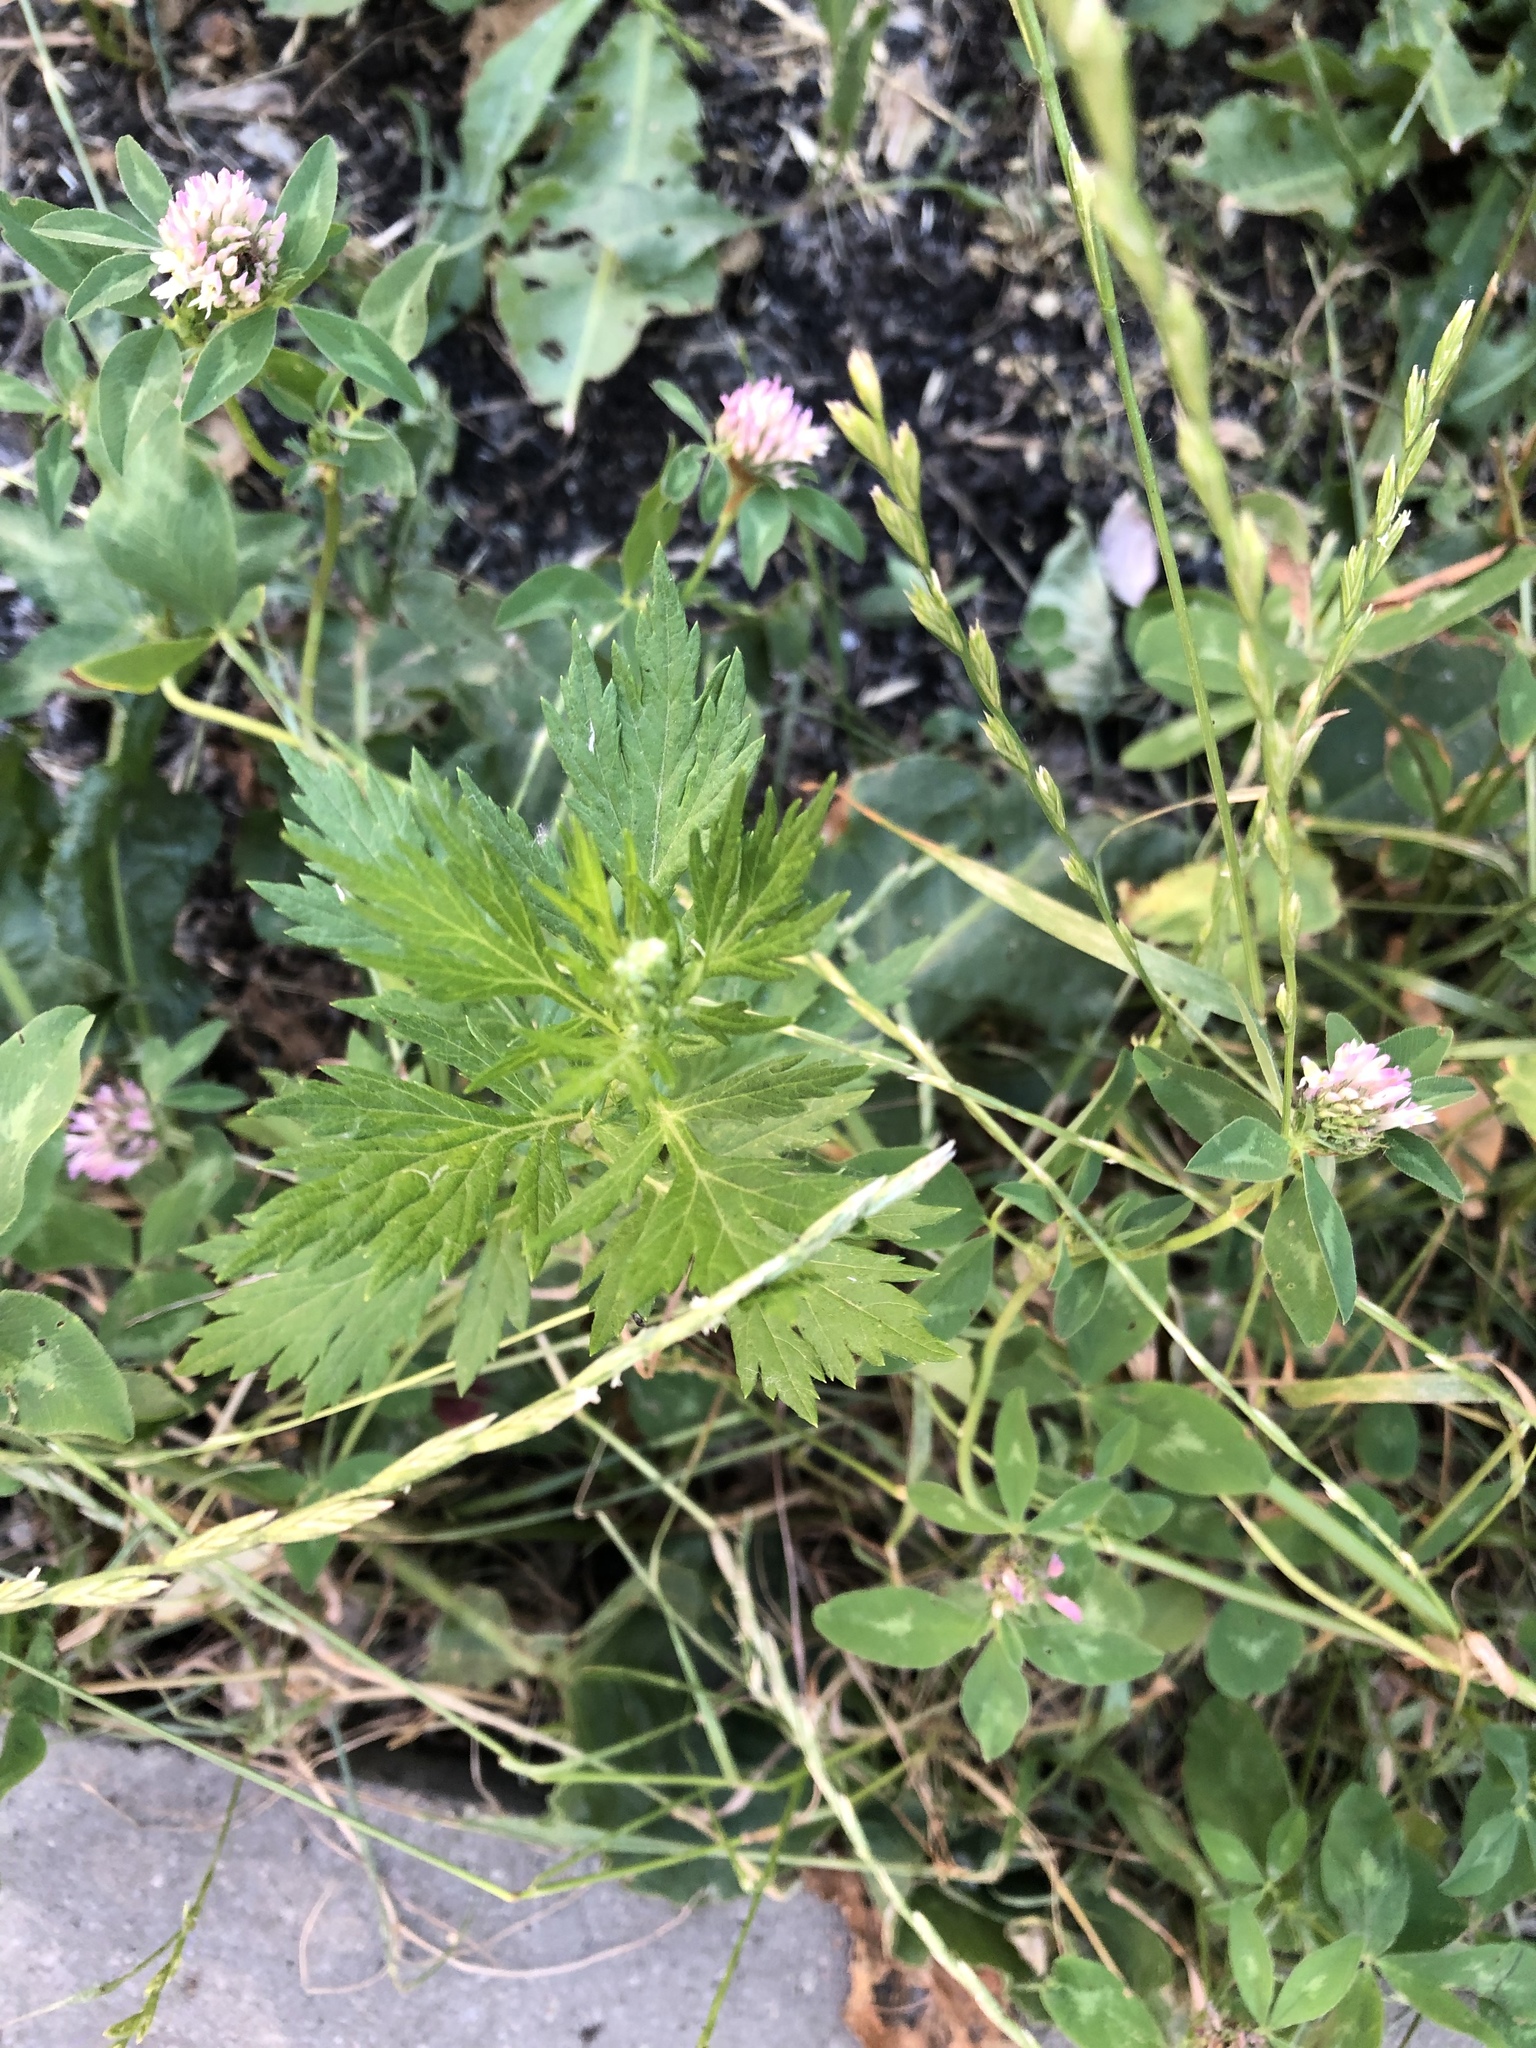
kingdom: Plantae
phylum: Tracheophyta
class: Magnoliopsida
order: Asterales
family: Asteraceae
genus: Artemisia
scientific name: Artemisia vulgaris
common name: Mugwort
